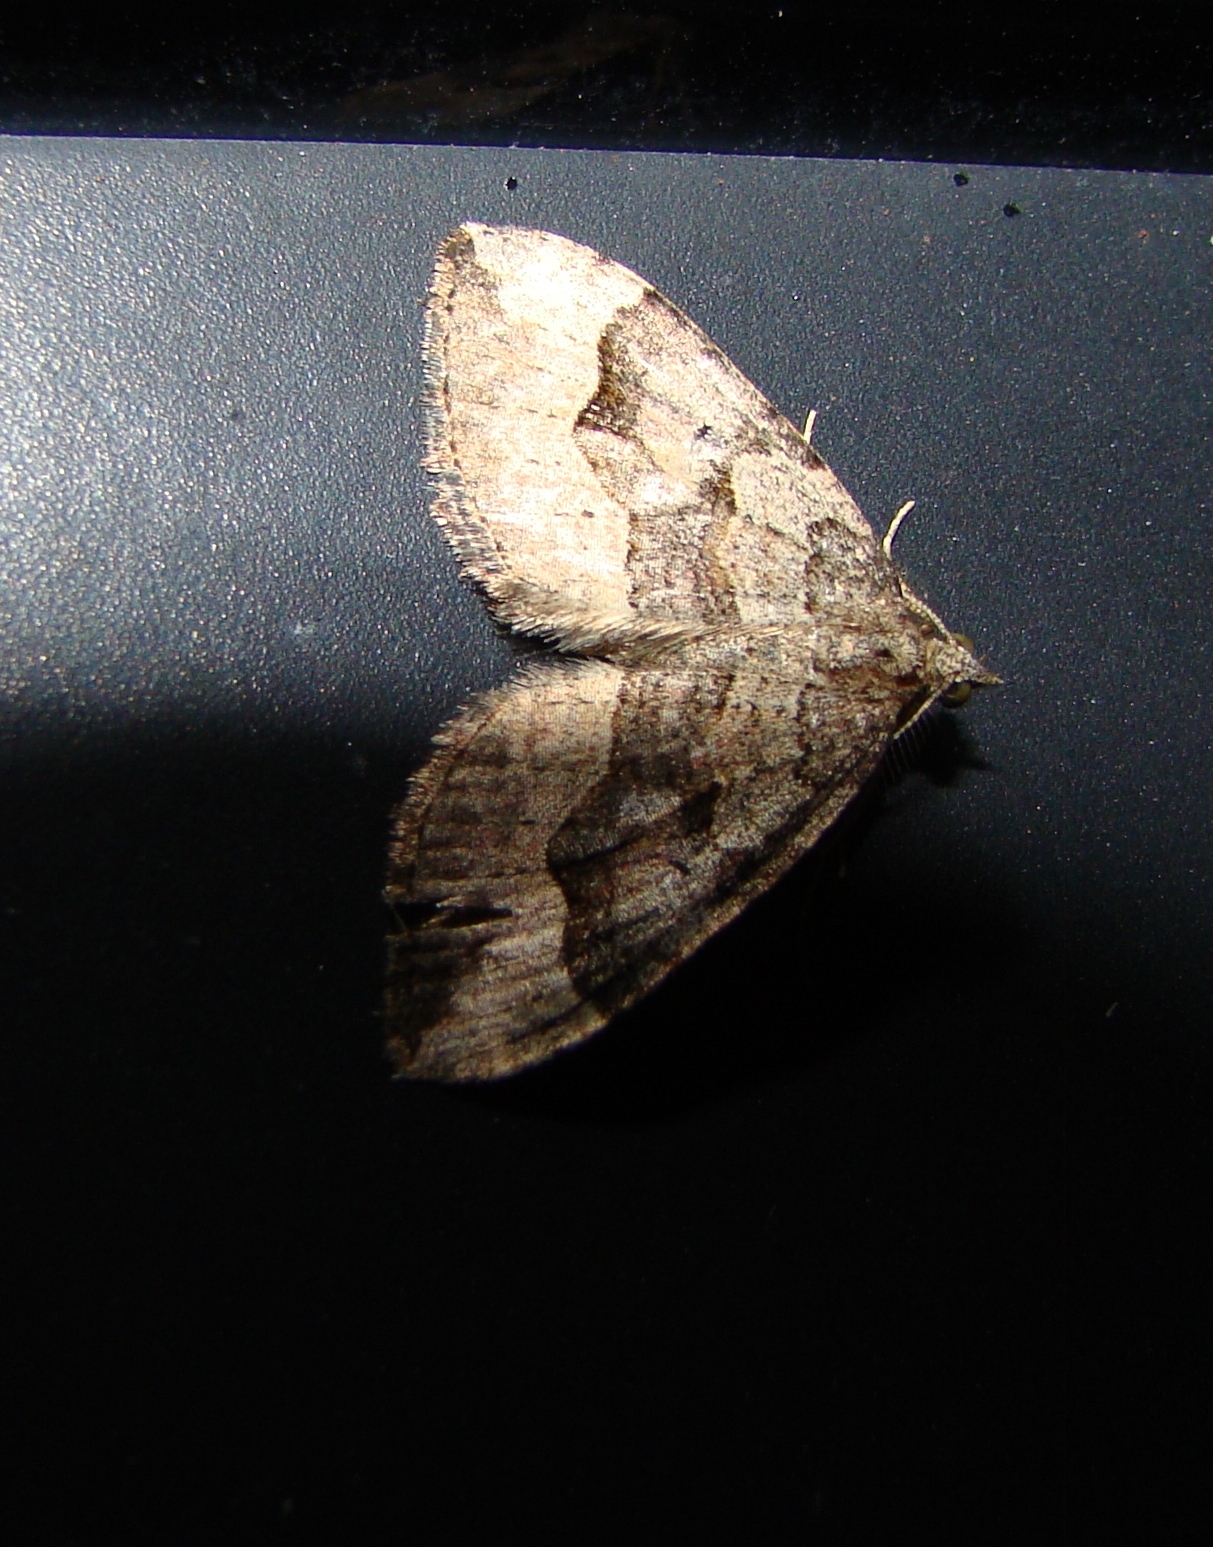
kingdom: Animalia
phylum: Arthropoda
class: Insecta
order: Lepidoptera
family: Geometridae
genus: Epyaxa
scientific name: Epyaxa rosearia
